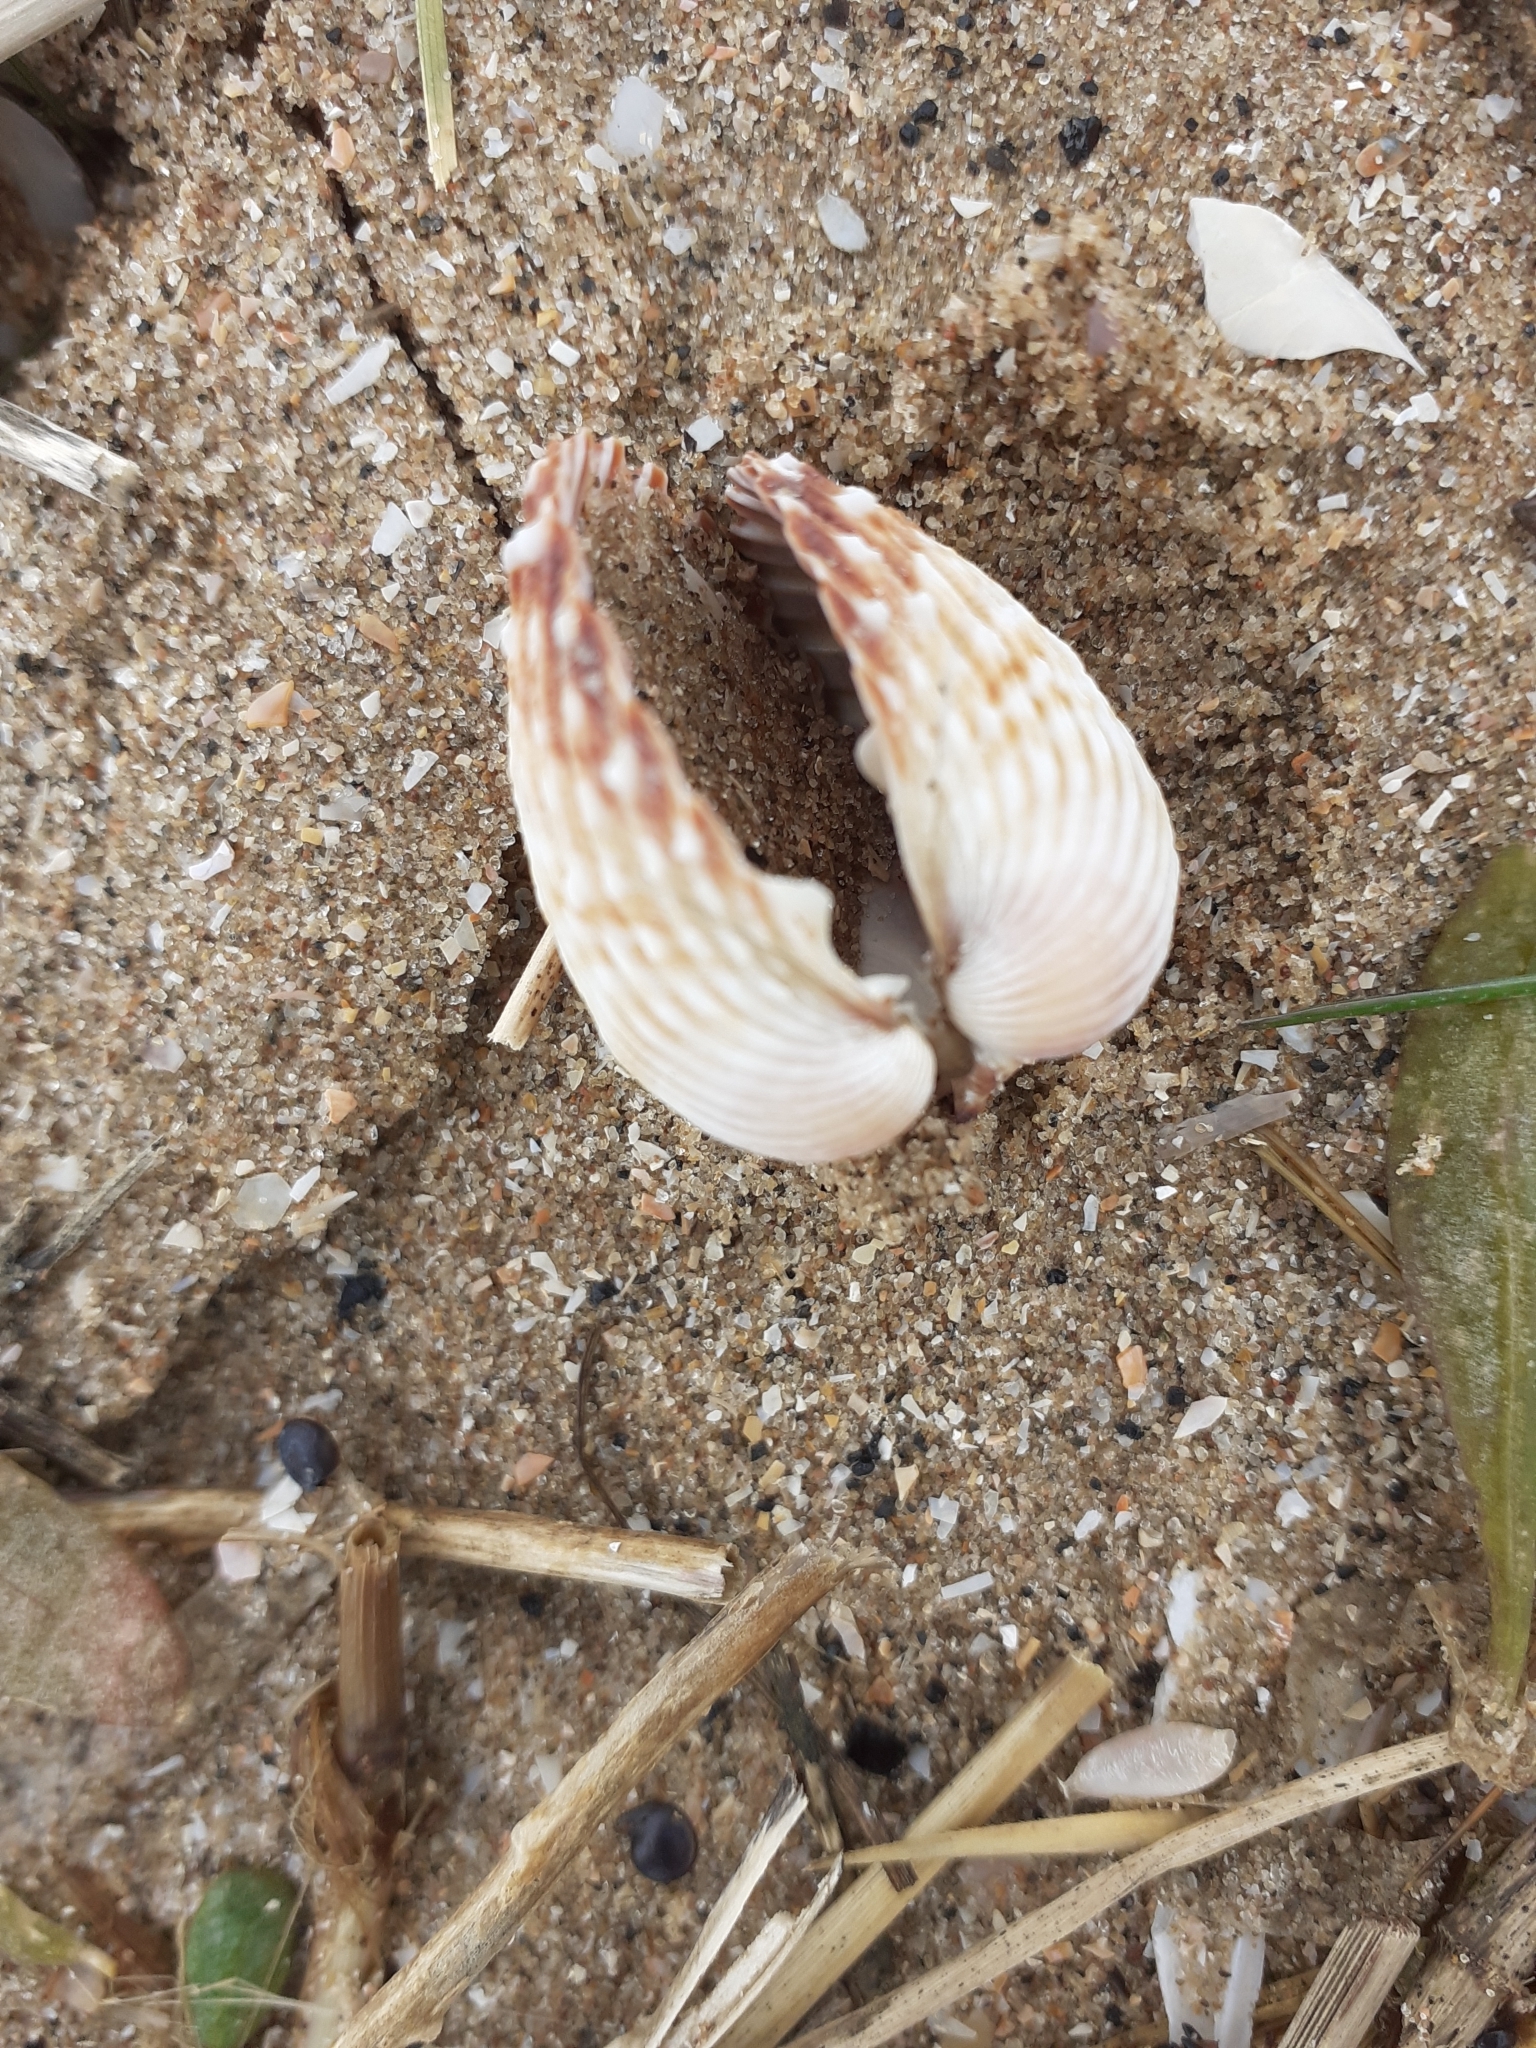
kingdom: Animalia
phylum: Mollusca
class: Bivalvia
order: Cardiida
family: Cardiidae
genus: Acanthocardia
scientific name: Acanthocardia echinata
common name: Prickly cockle
